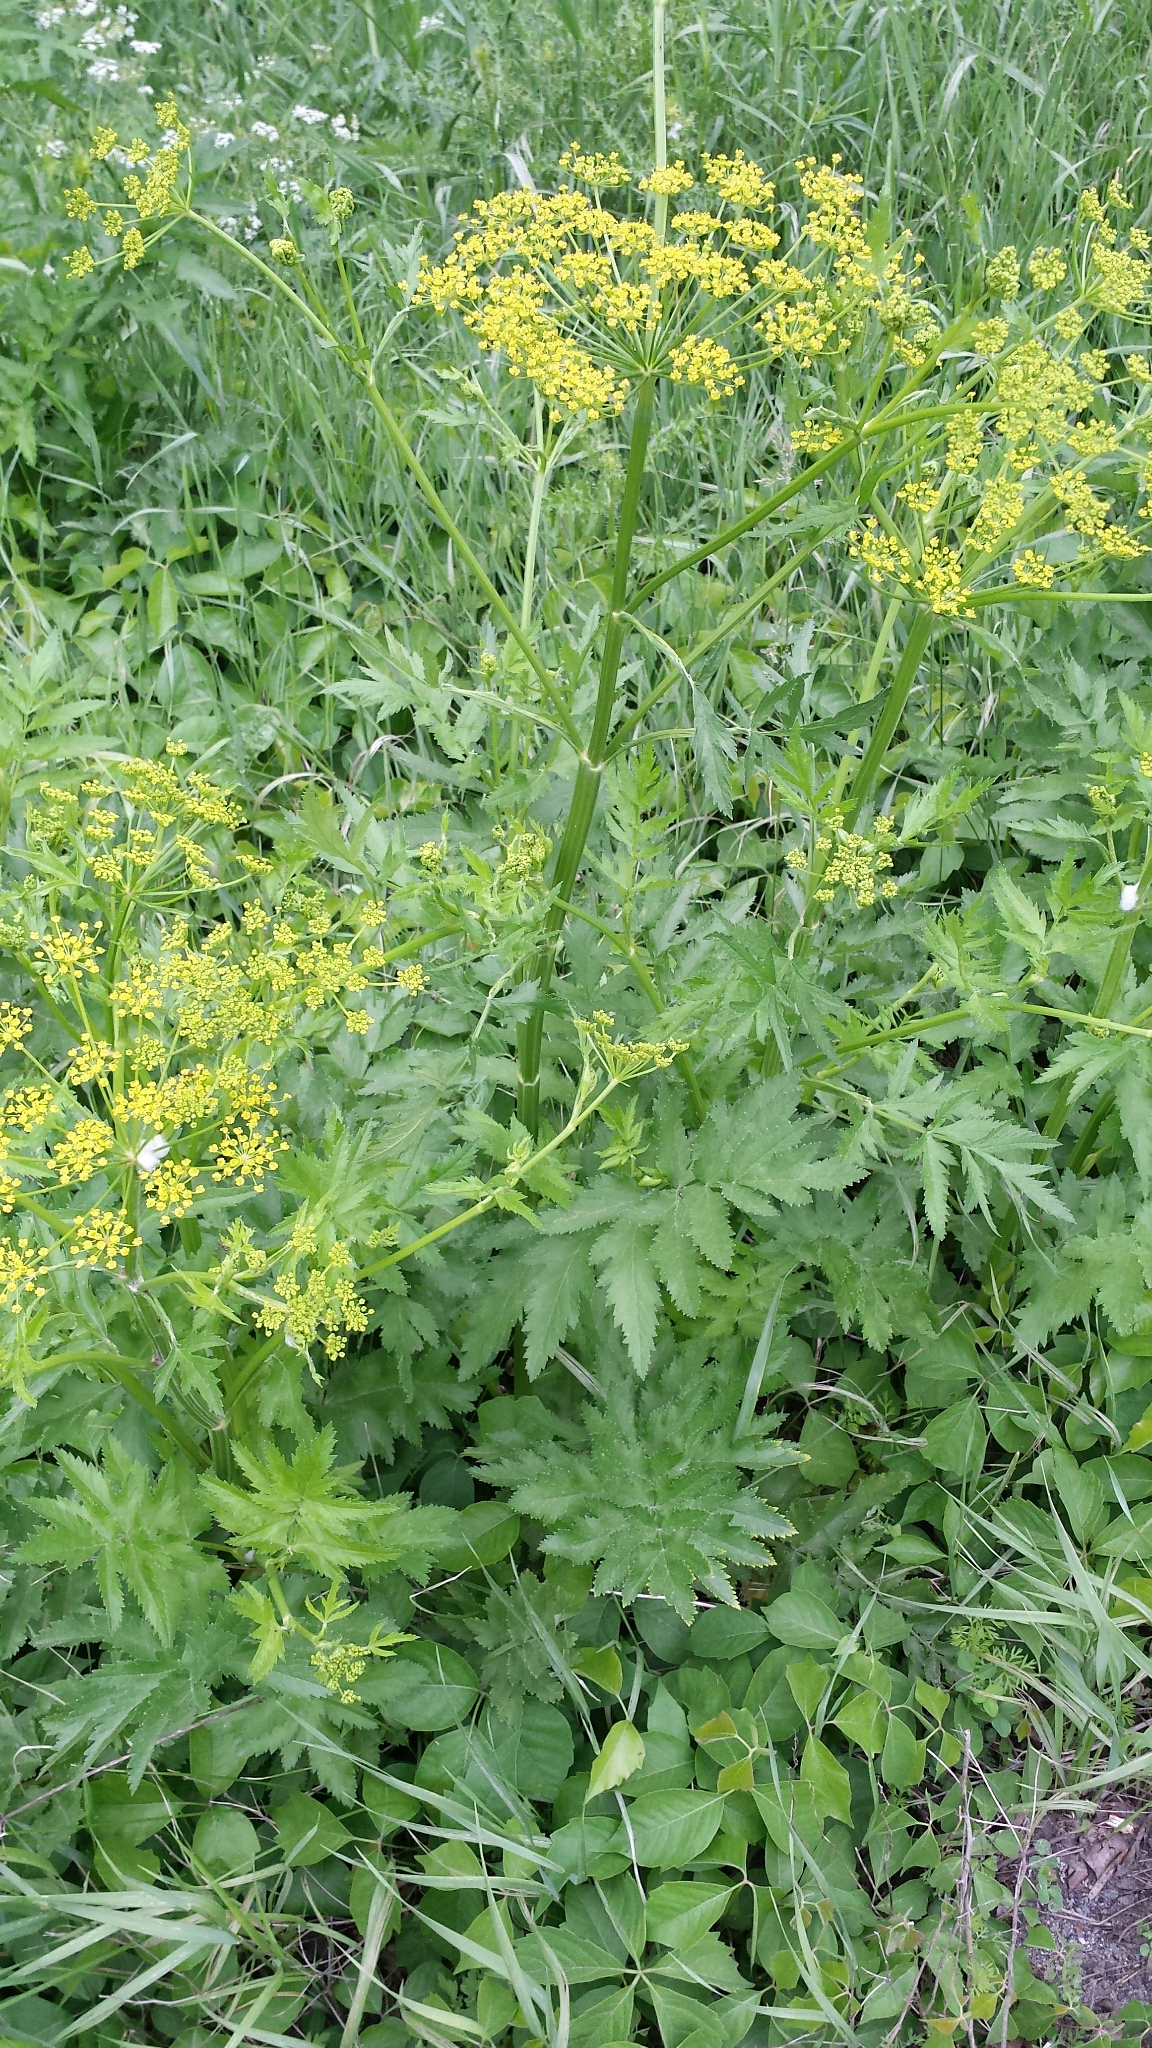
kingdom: Plantae
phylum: Tracheophyta
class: Magnoliopsida
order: Apiales
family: Apiaceae
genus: Pastinaca
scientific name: Pastinaca sativa
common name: Wild parsnip
